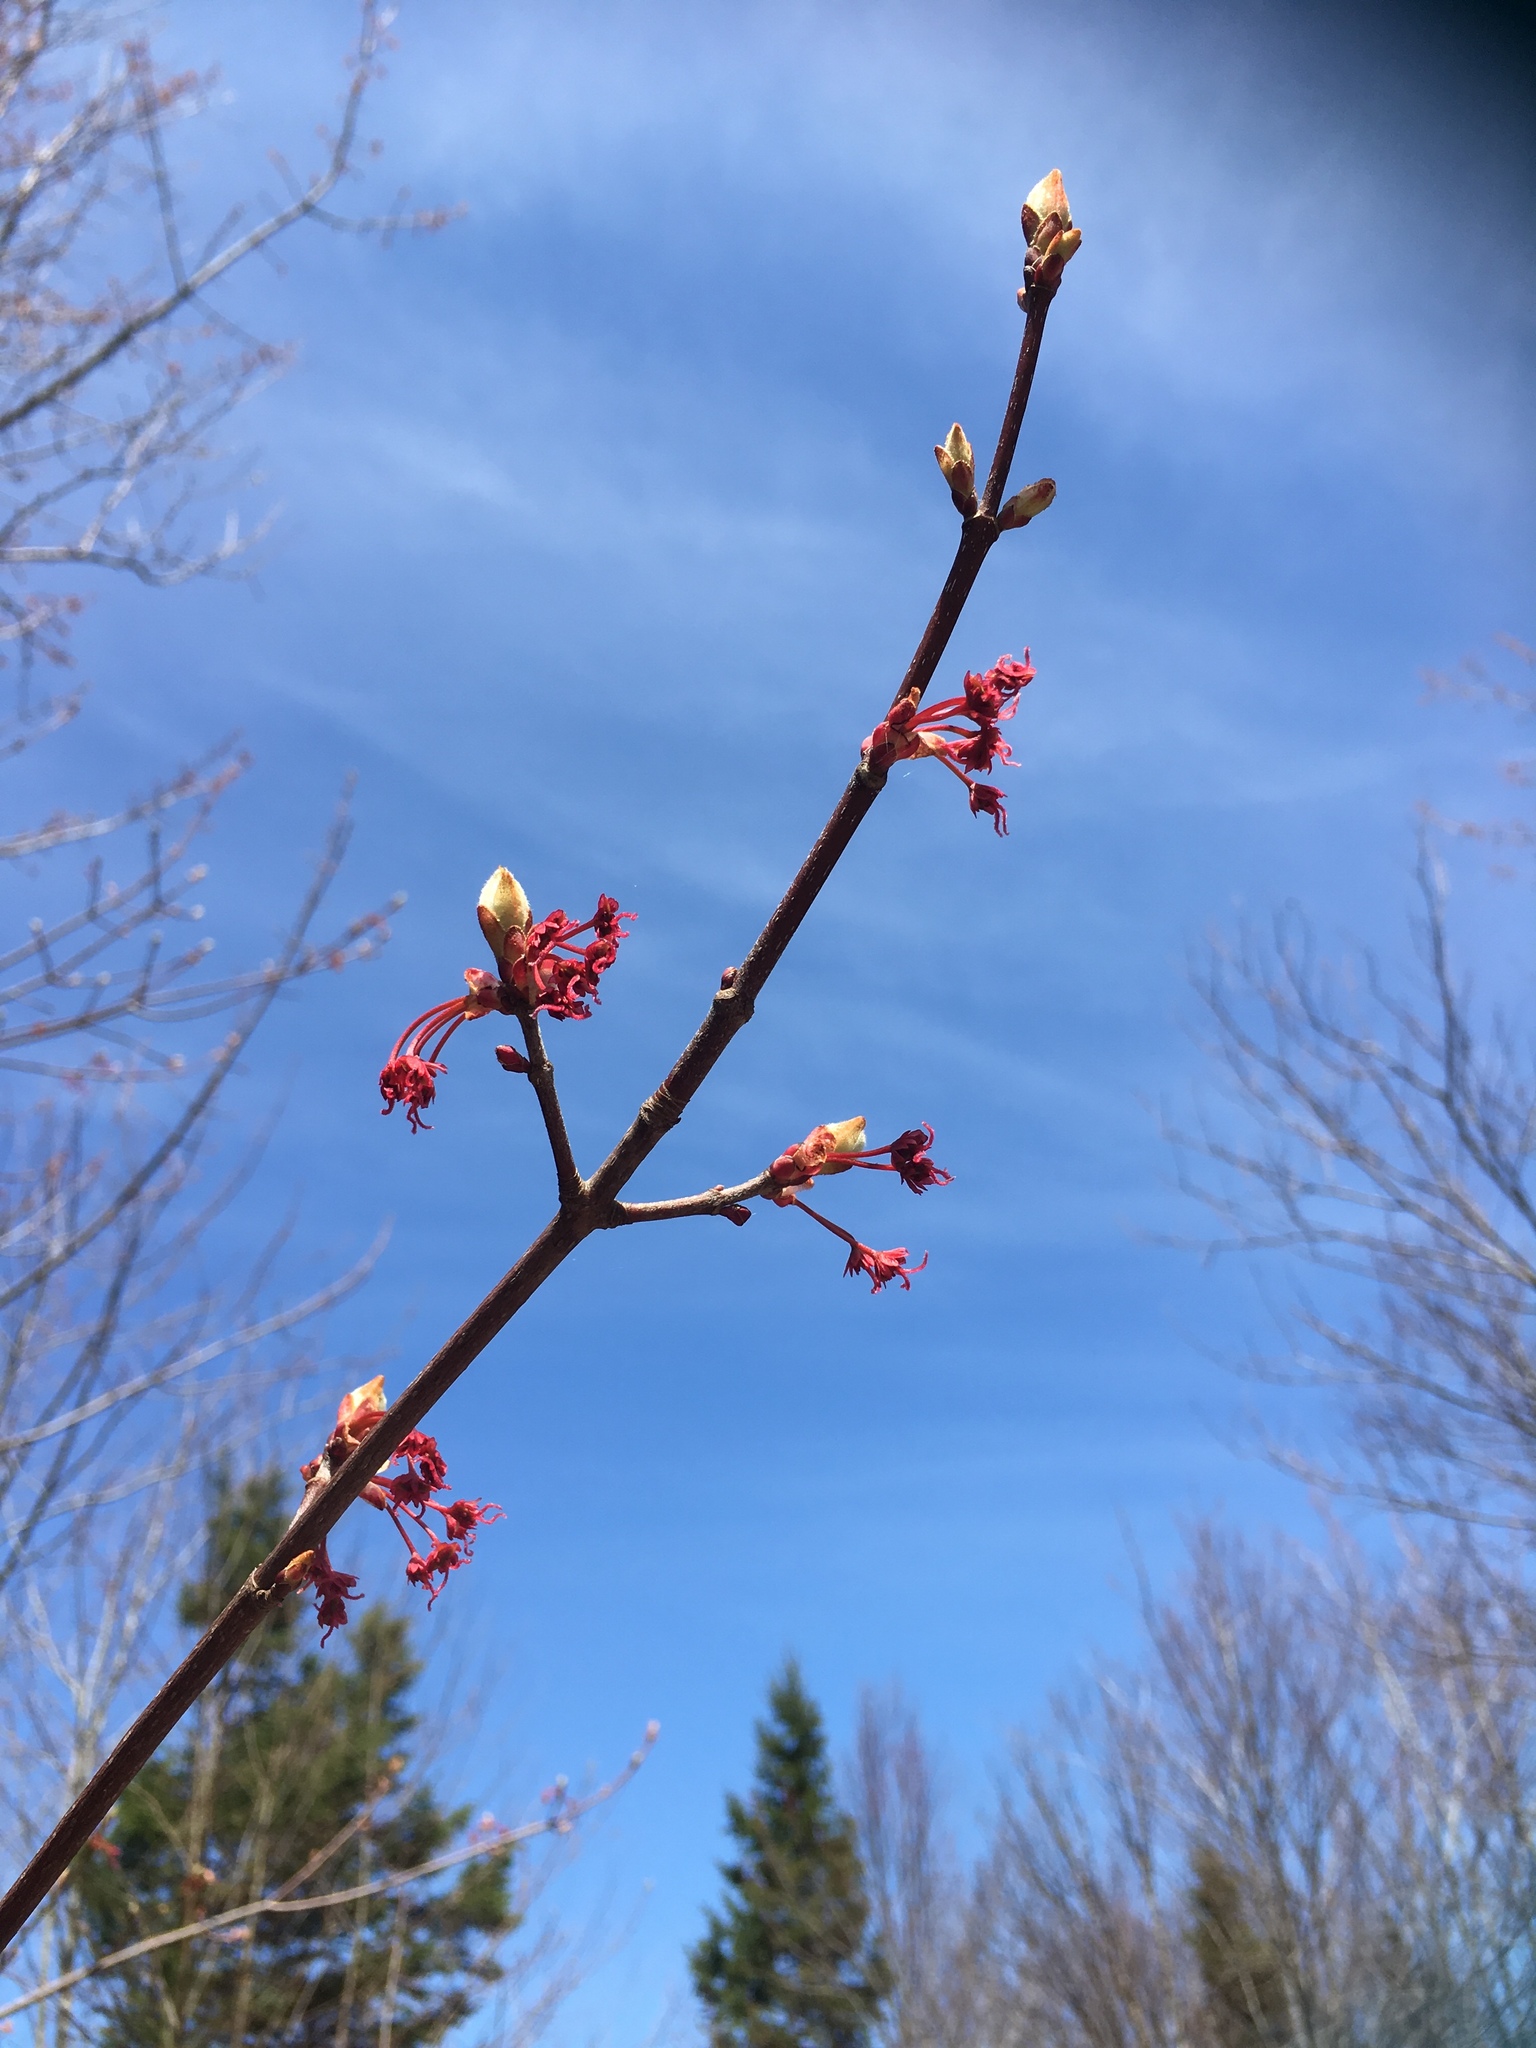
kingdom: Plantae
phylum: Tracheophyta
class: Magnoliopsida
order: Sapindales
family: Sapindaceae
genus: Acer
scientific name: Acer rubrum
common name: Red maple
